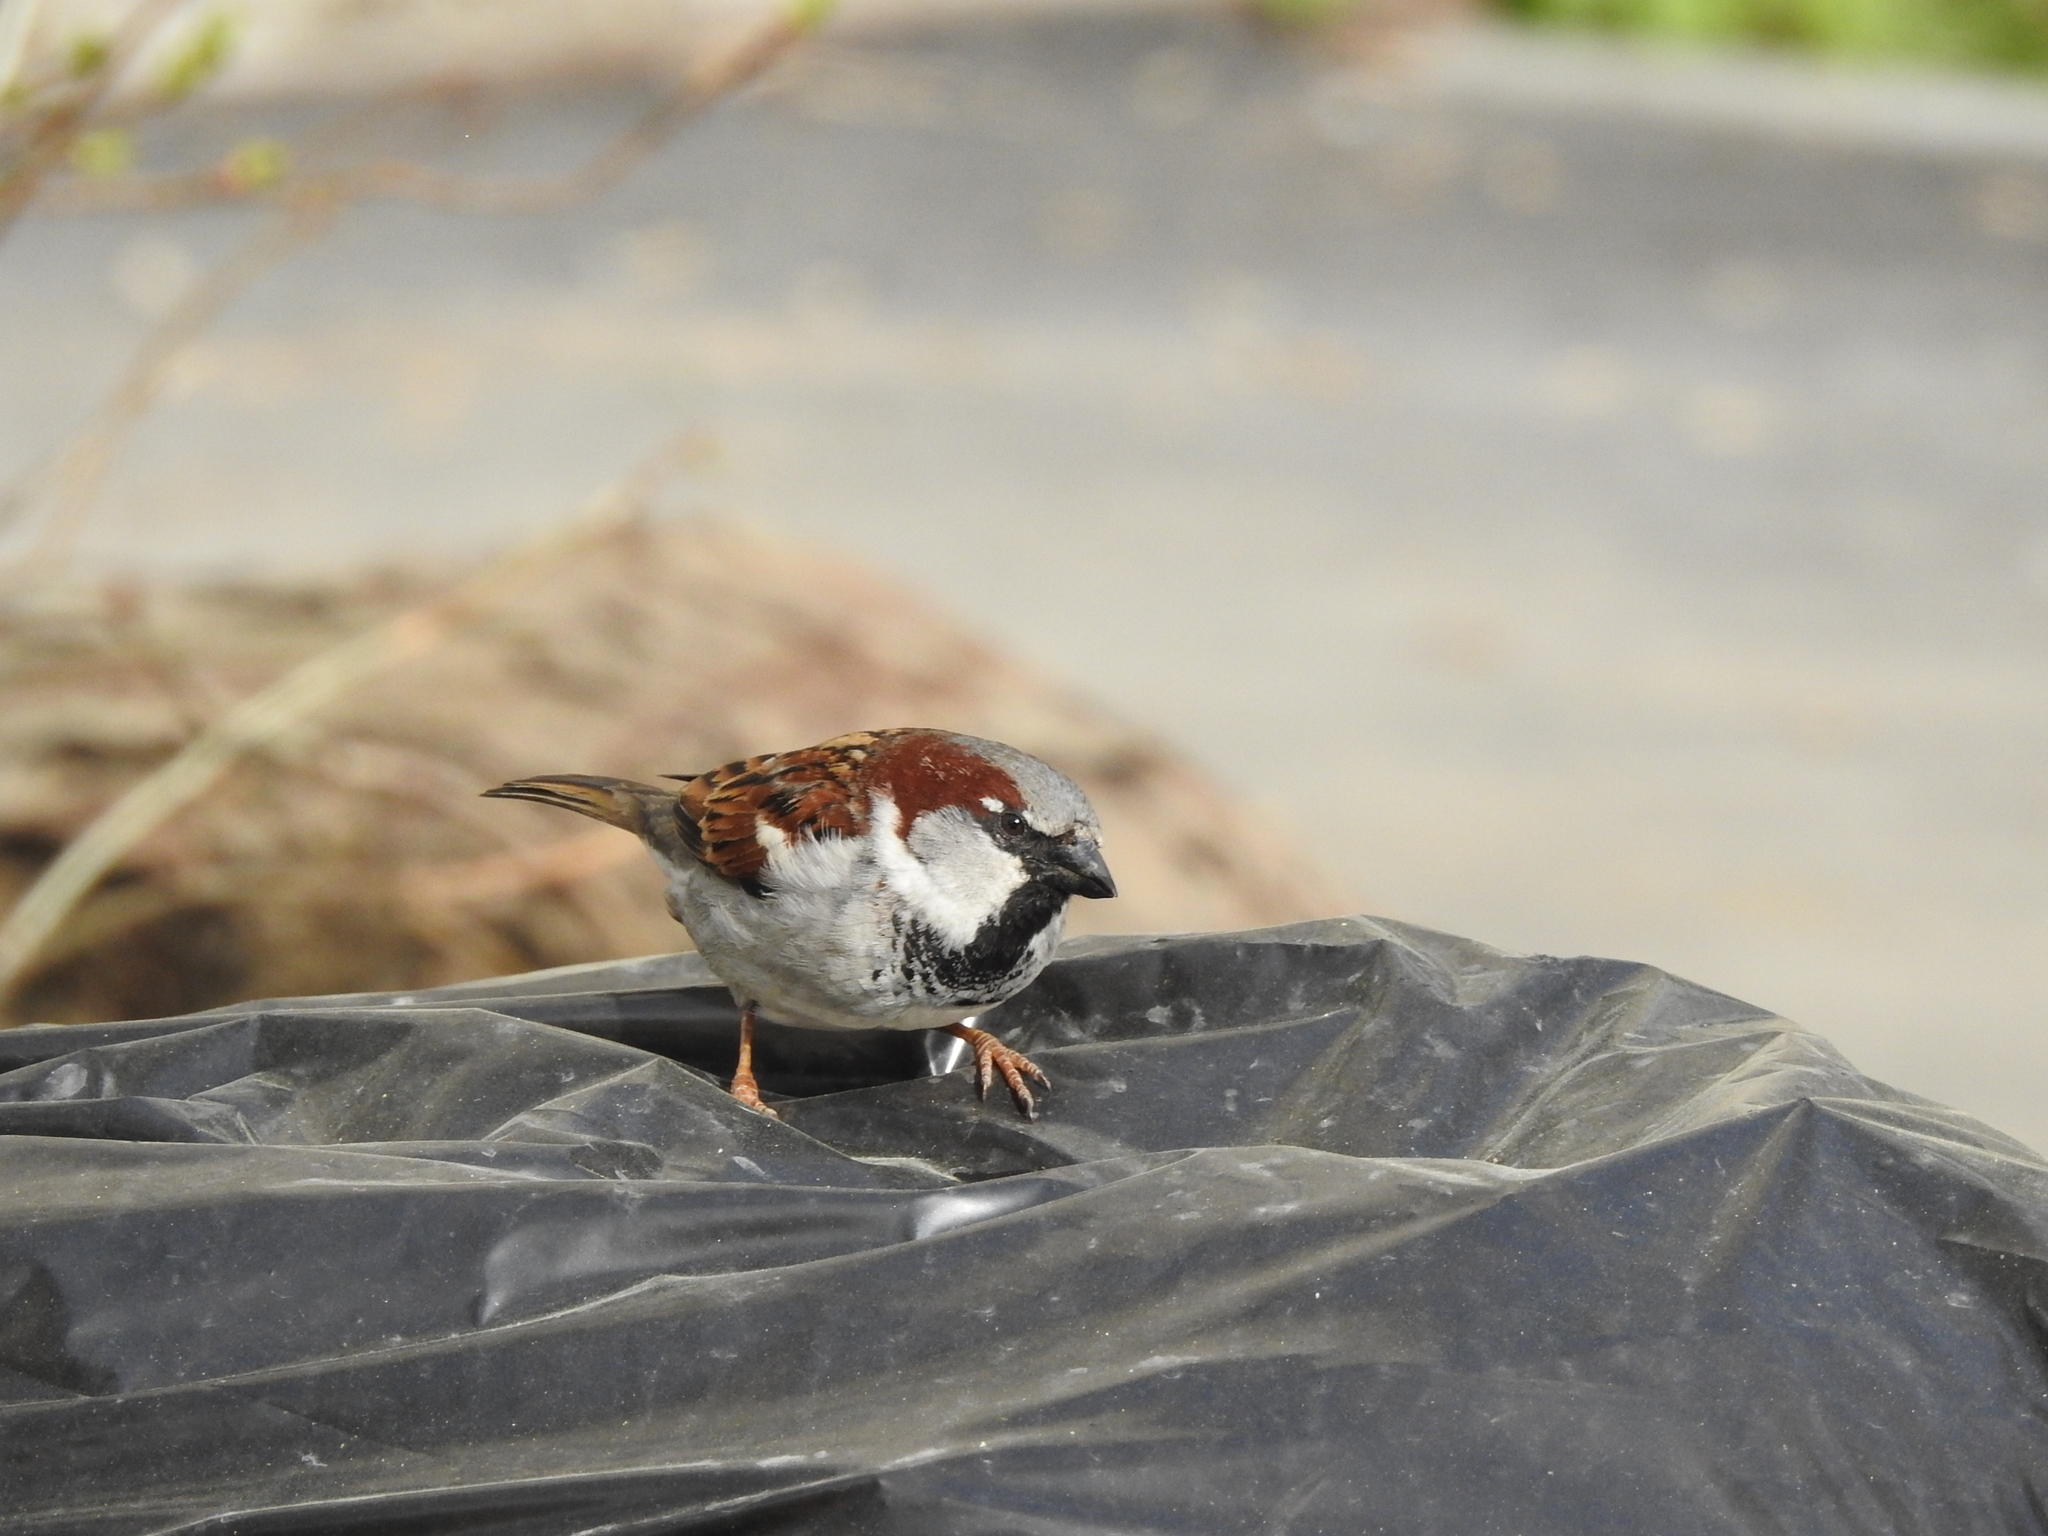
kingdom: Animalia
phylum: Chordata
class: Aves
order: Passeriformes
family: Passeridae
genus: Passer
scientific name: Passer domesticus
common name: House sparrow
